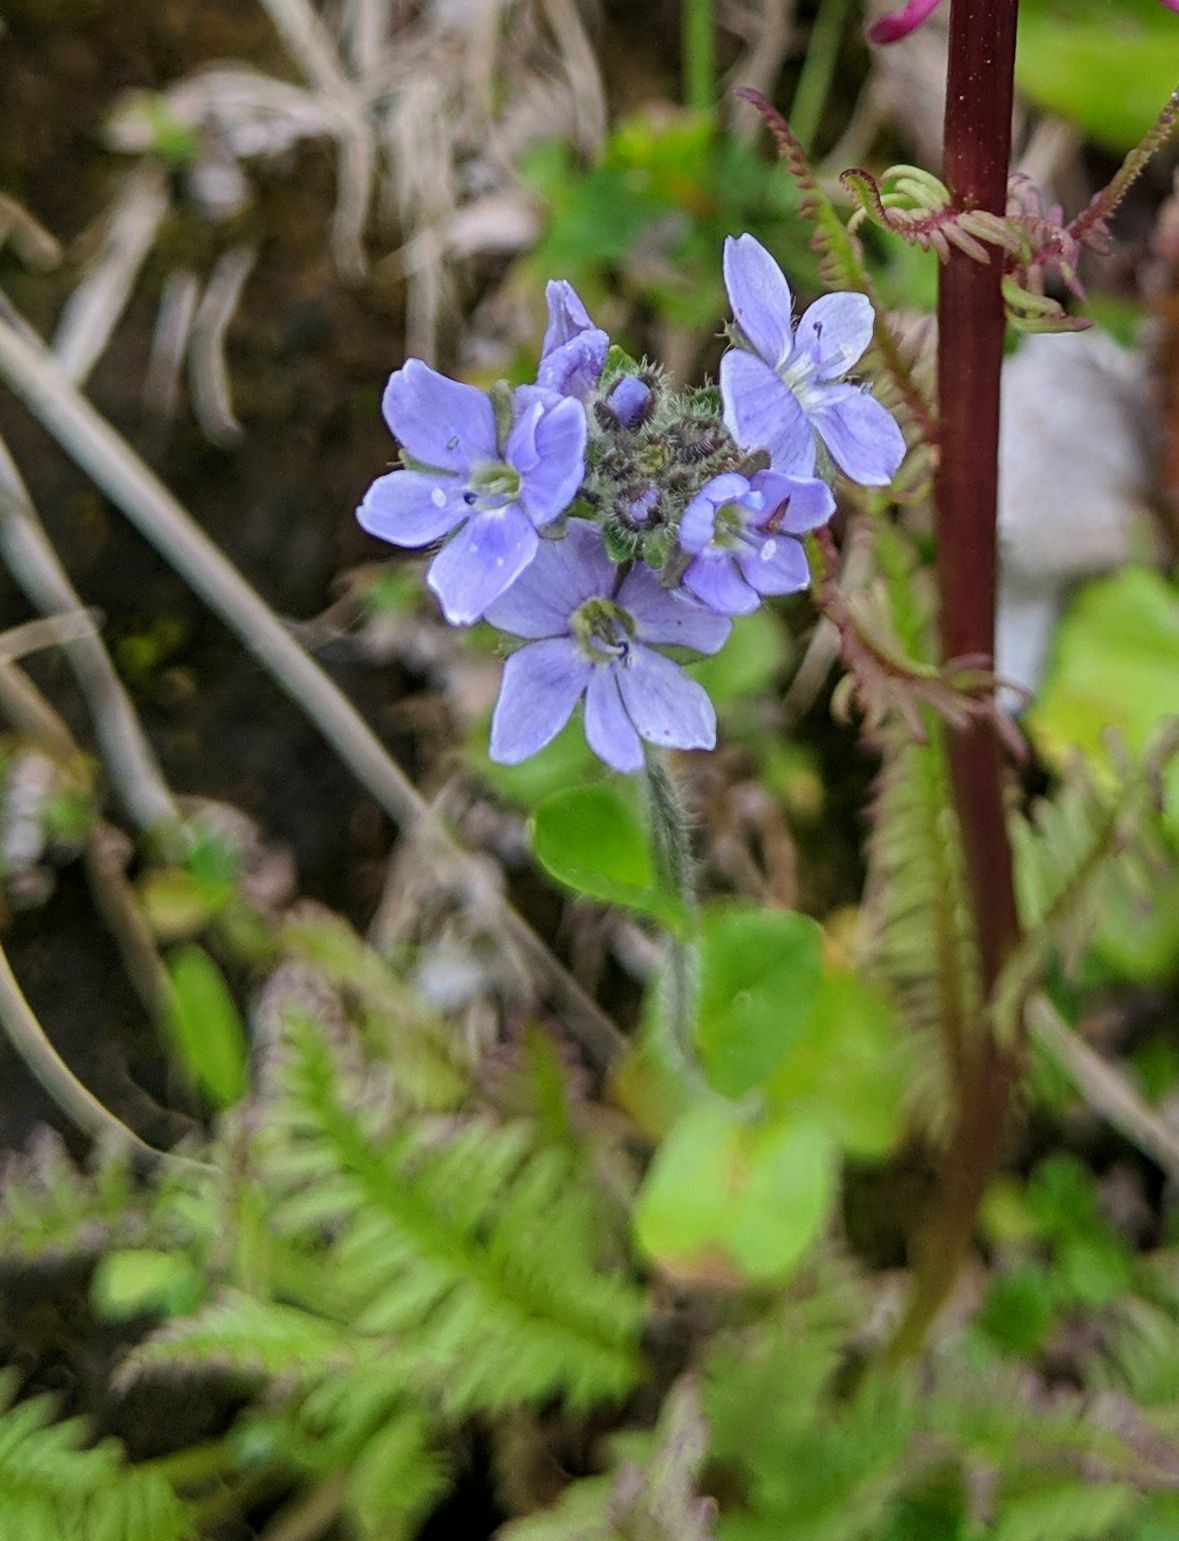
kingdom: Plantae
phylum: Tracheophyta
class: Magnoliopsida
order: Lamiales
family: Plantaginaceae
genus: Veronica
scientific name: Veronica wormskjoldii
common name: American alpine speedwell
